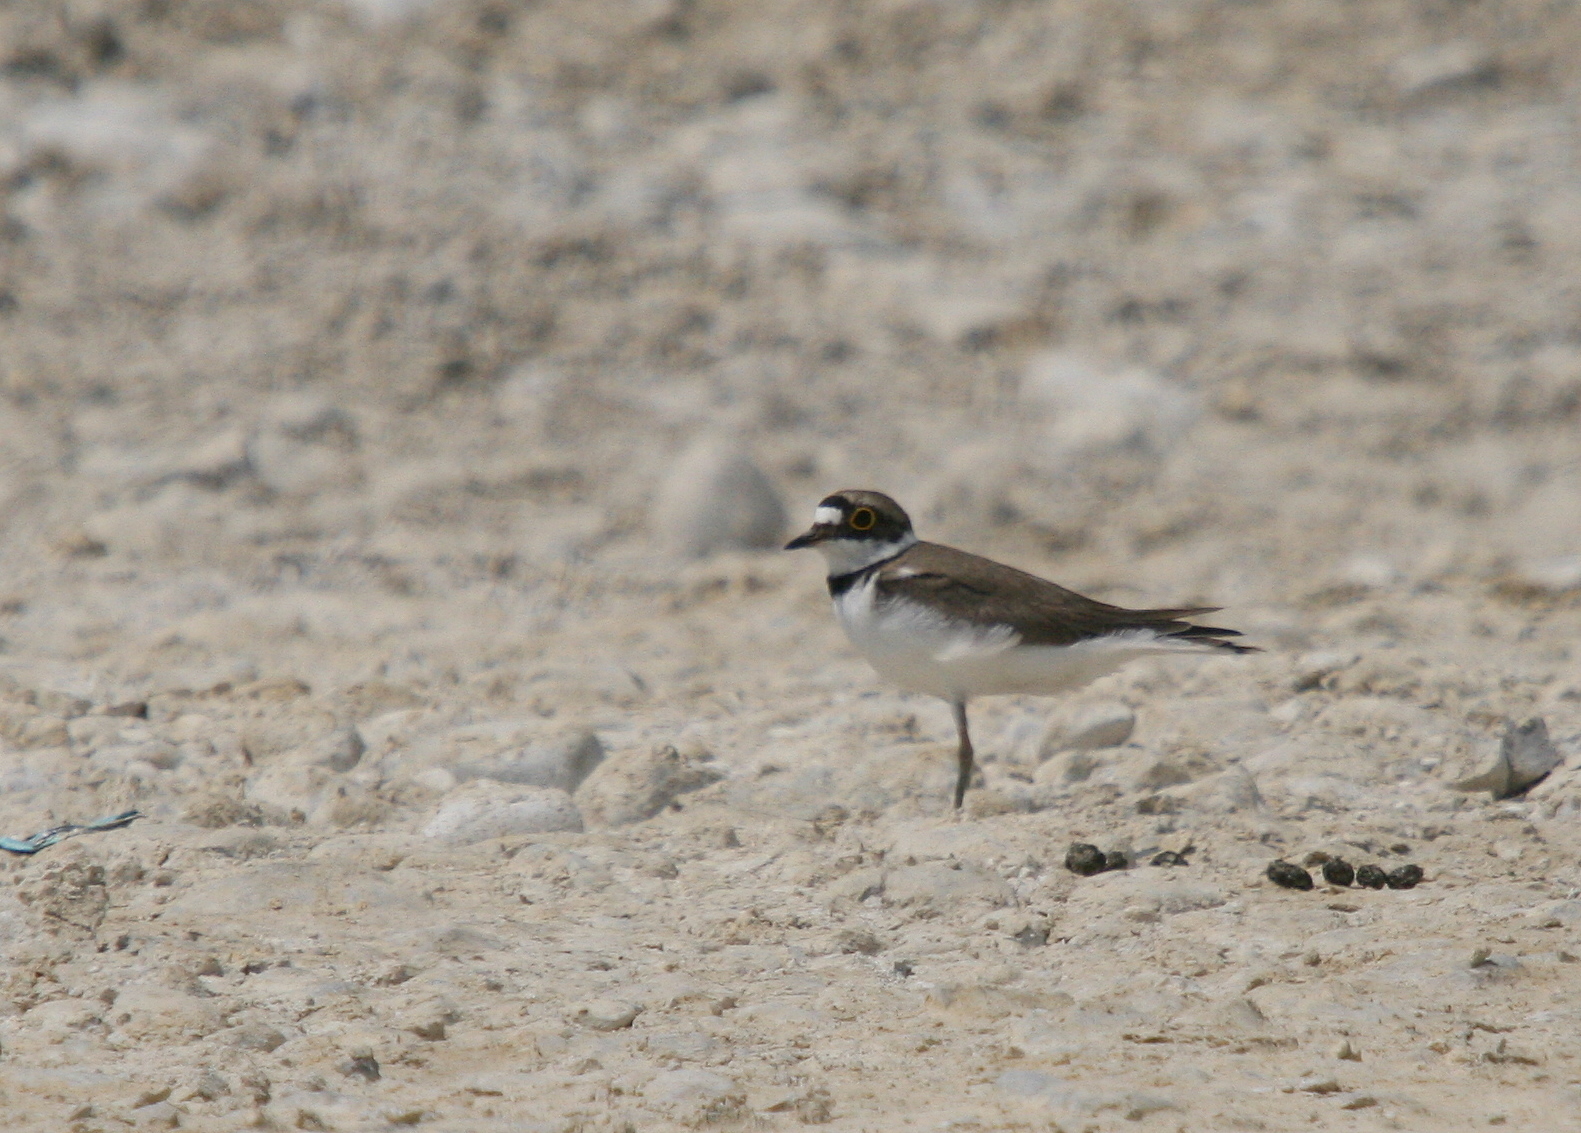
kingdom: Animalia
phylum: Chordata
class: Aves
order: Charadriiformes
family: Charadriidae
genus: Charadrius
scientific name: Charadrius dubius
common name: Little ringed plover
